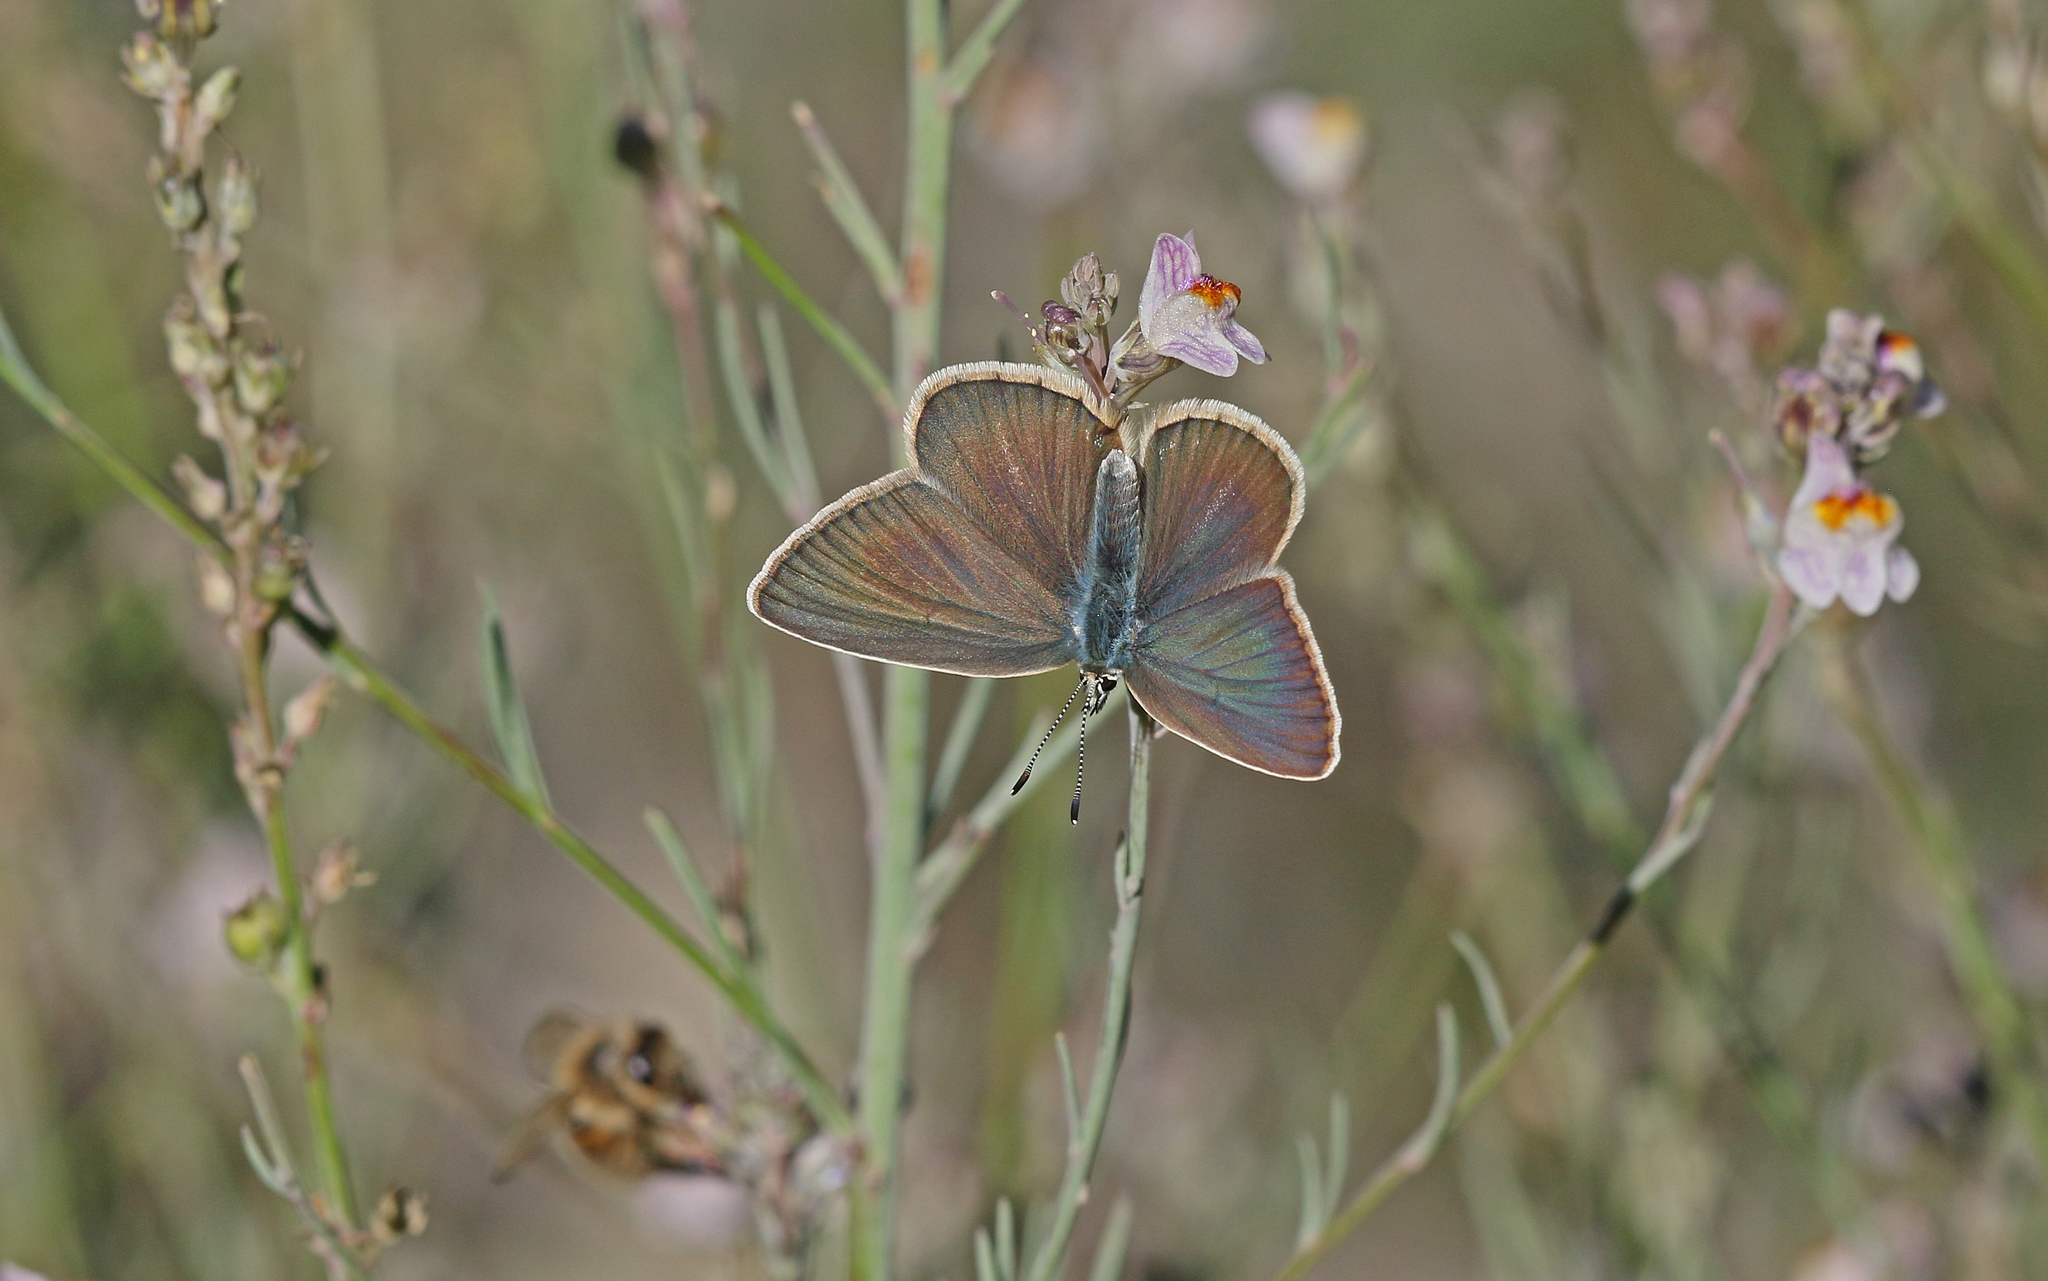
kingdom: Animalia
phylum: Arthropoda
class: Insecta
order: Lepidoptera
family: Lycaenidae
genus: Agrodiaetus
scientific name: Agrodiaetus damon
